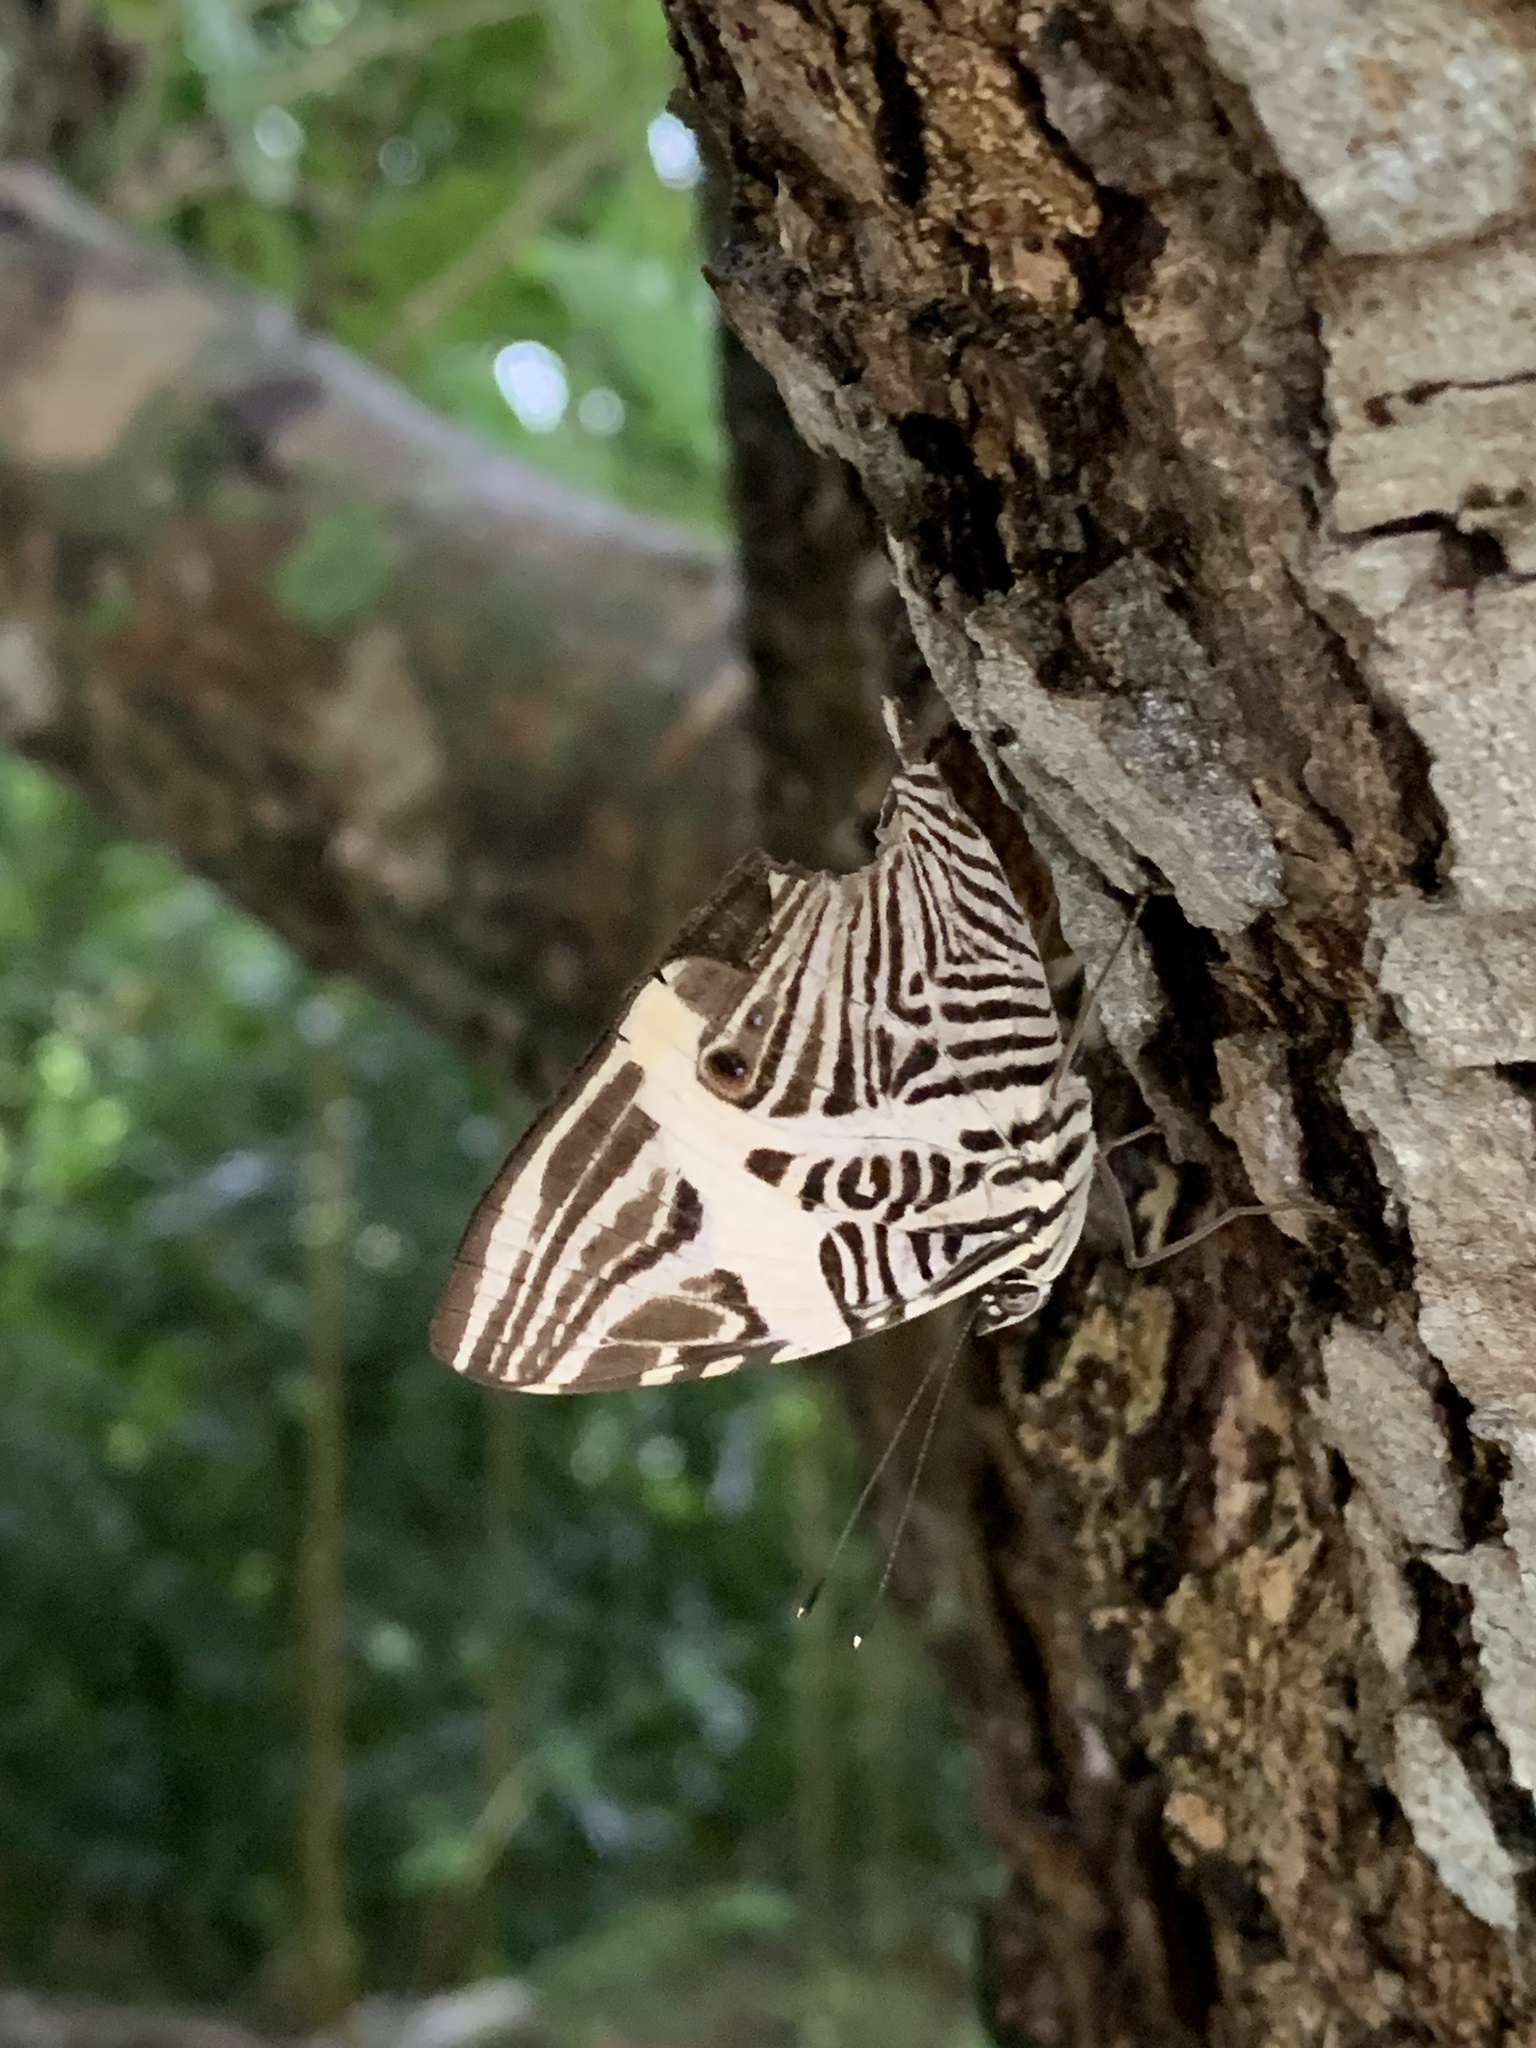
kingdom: Animalia
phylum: Arthropoda
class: Insecta
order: Lepidoptera
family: Nymphalidae
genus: Colobura
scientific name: Colobura dirce
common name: Dirce beauty
